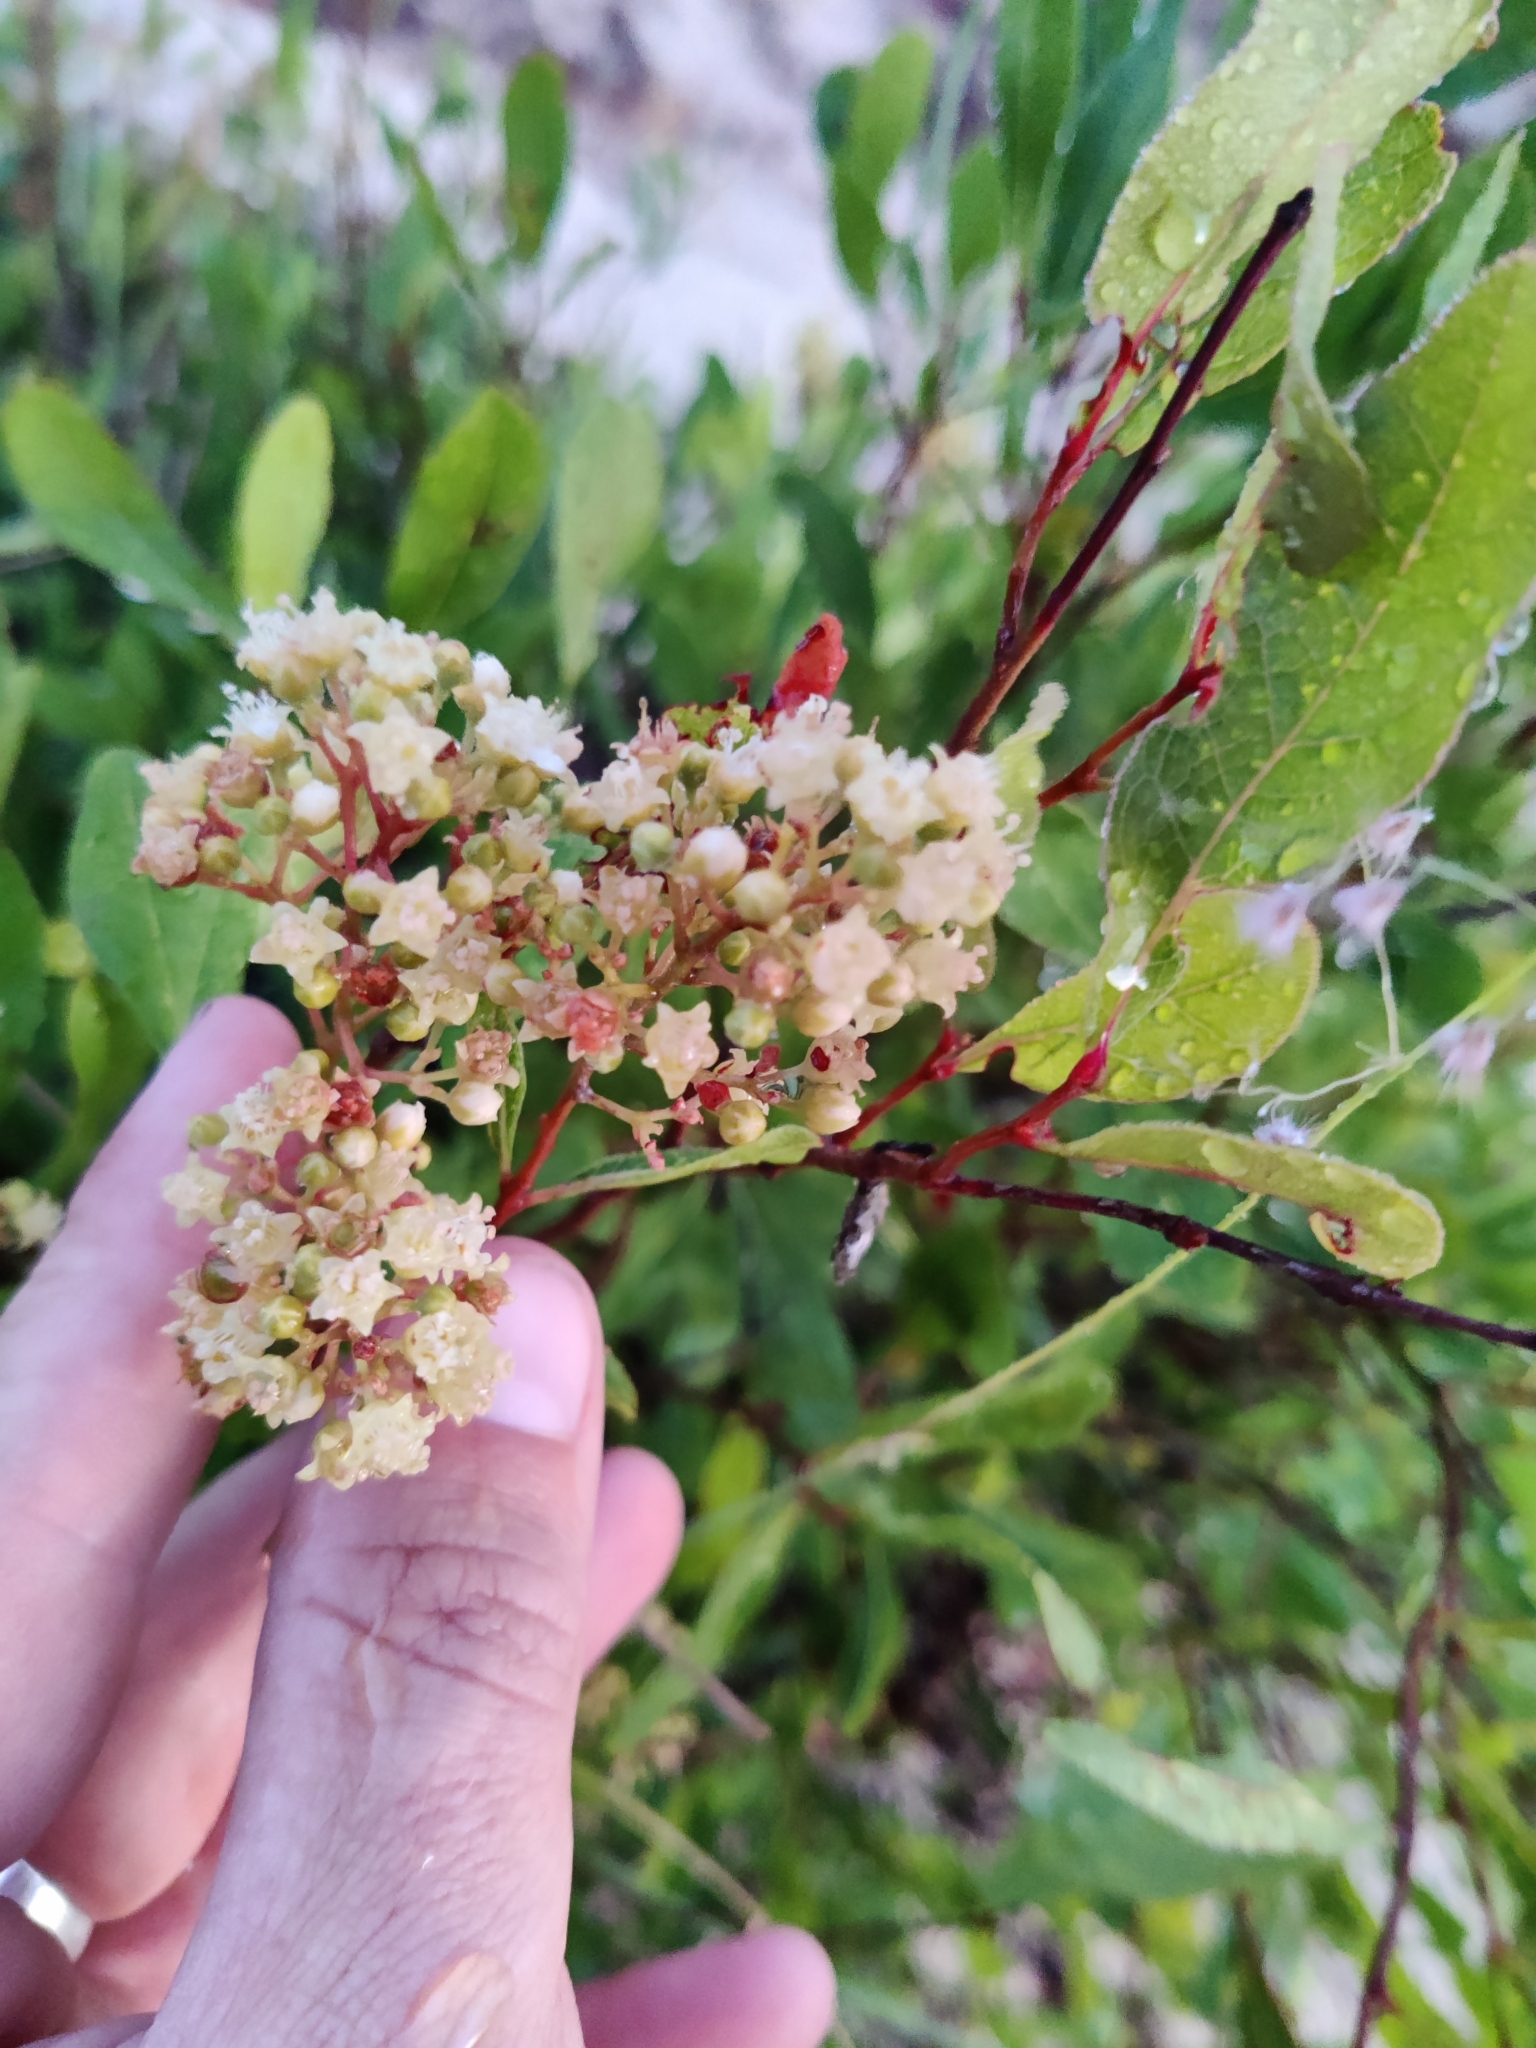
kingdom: Plantae
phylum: Tracheophyta
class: Magnoliopsida
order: Malpighiales
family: Chrysobalanaceae
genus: Geobalanus
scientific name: Geobalanus oblongifolius
